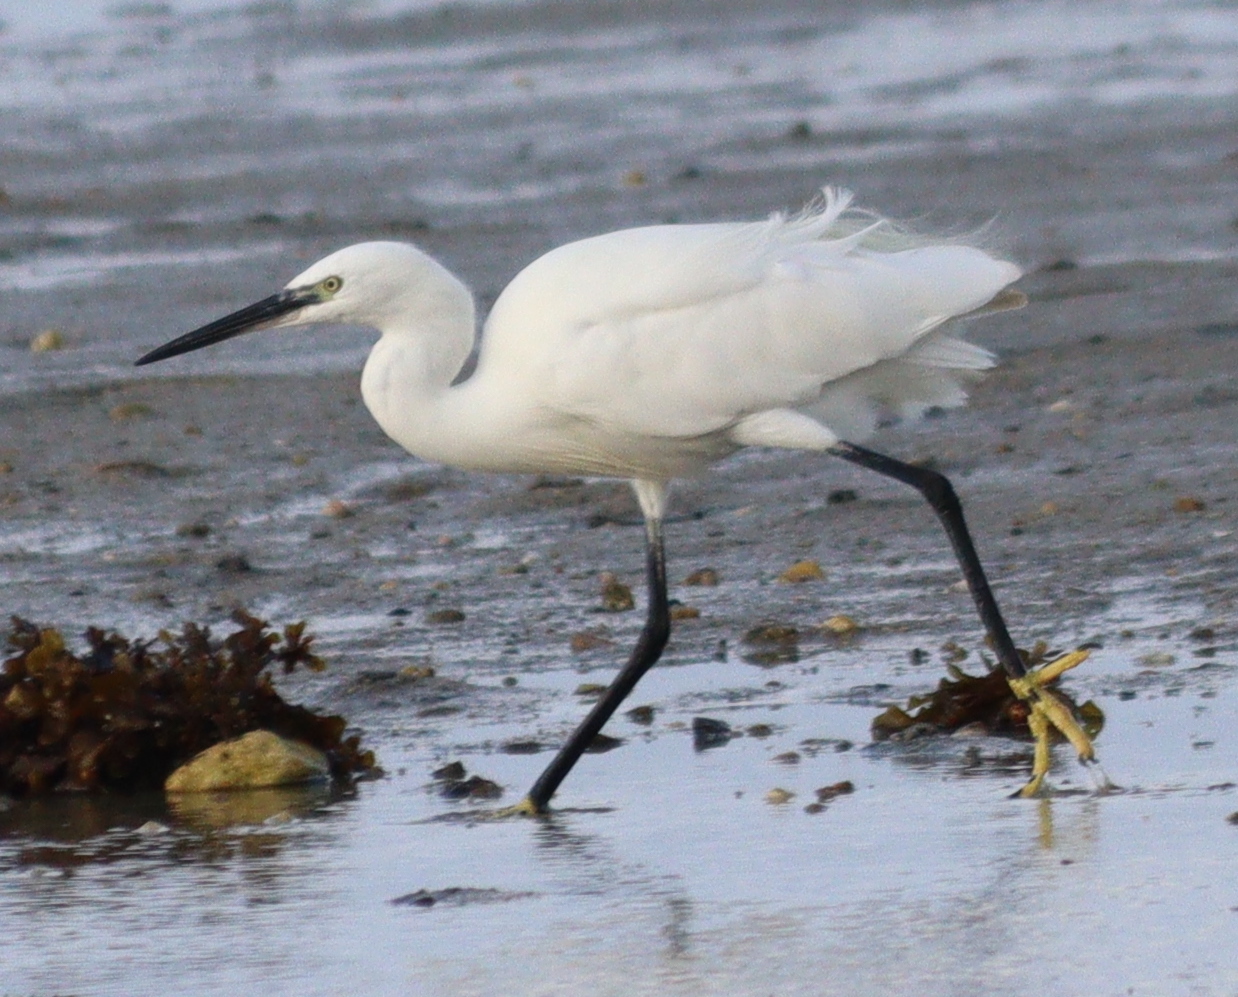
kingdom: Animalia
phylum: Chordata
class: Aves
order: Pelecaniformes
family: Ardeidae
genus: Egretta
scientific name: Egretta garzetta
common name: Little egret
